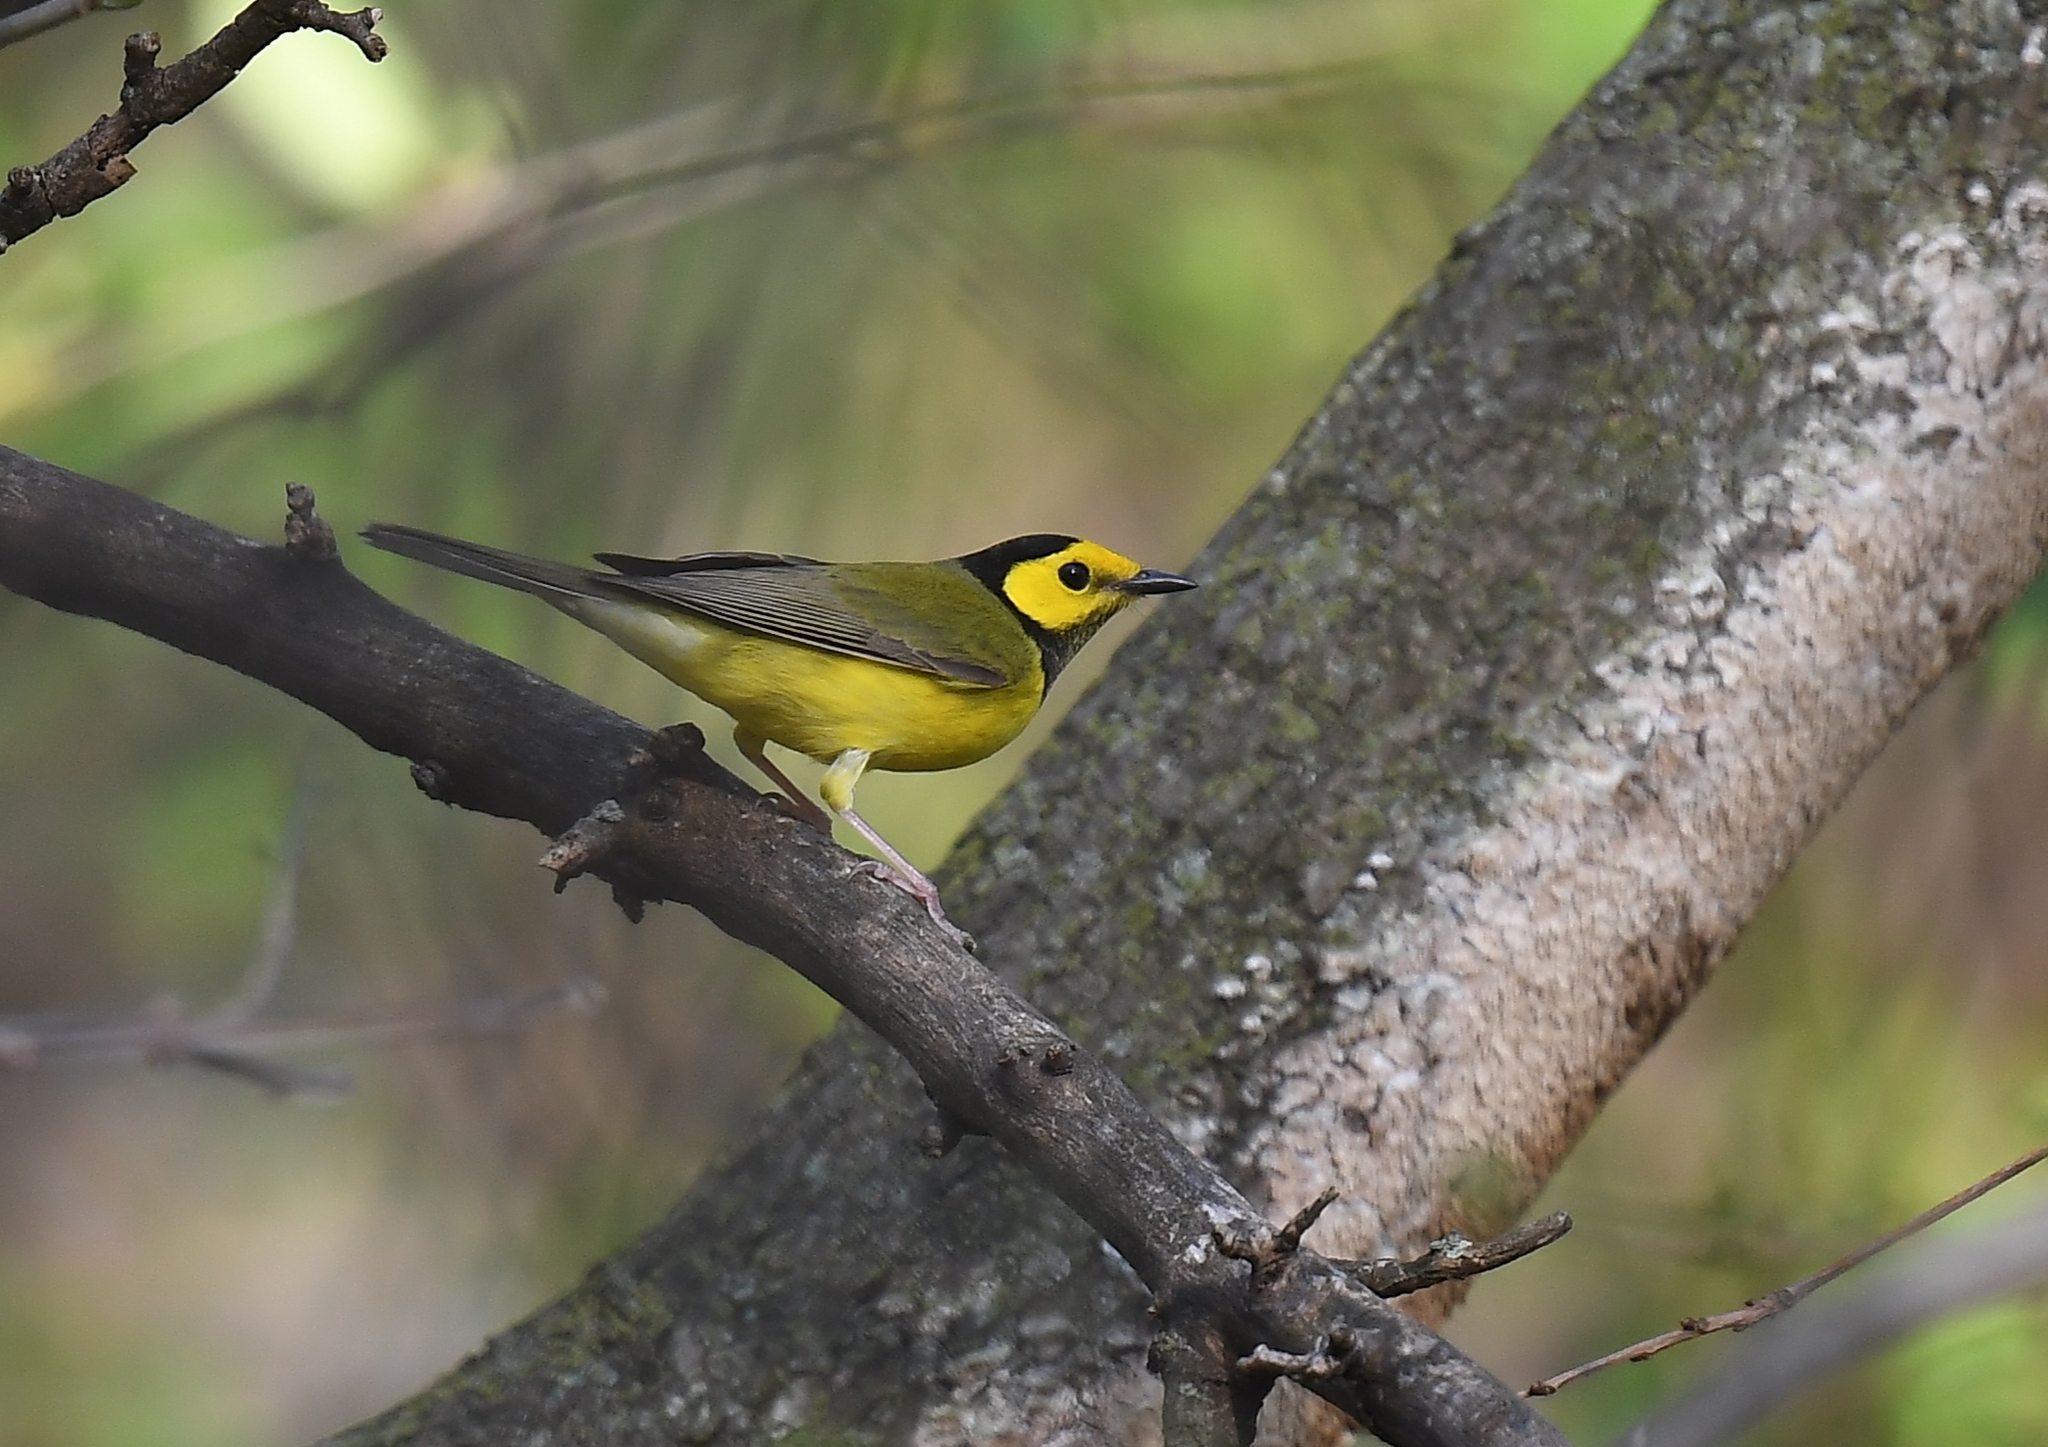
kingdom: Animalia
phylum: Chordata
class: Aves
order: Passeriformes
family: Parulidae
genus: Setophaga
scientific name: Setophaga citrina
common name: Hooded warbler
